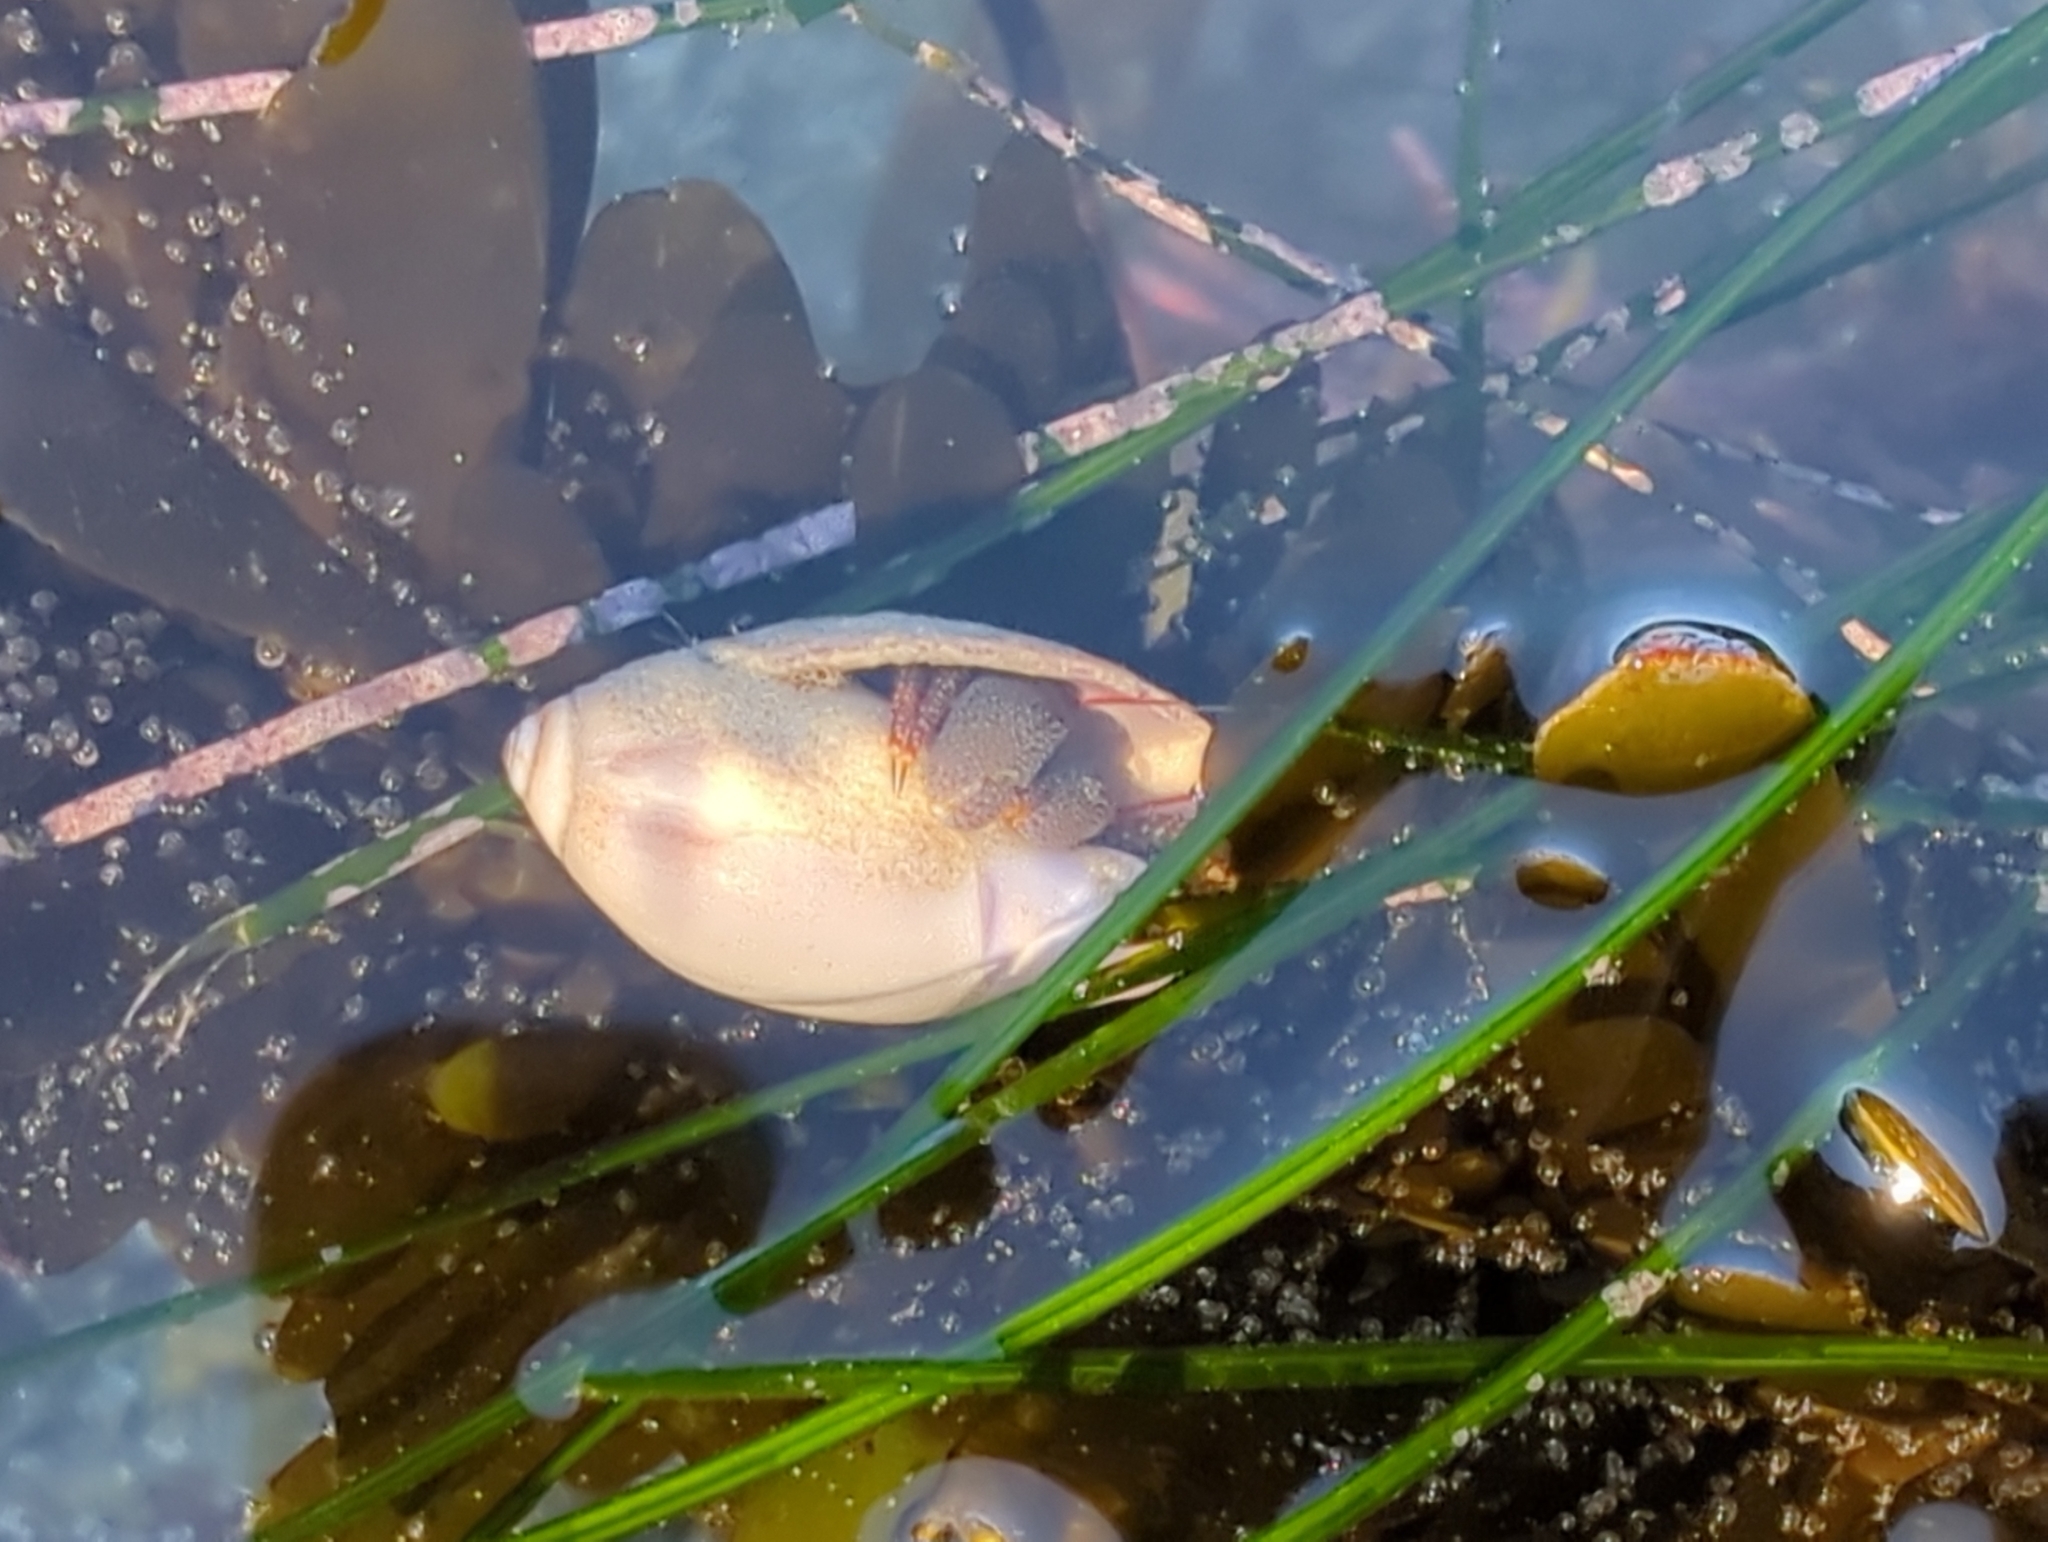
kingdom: Animalia
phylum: Arthropoda
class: Malacostraca
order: Decapoda
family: Paguridae
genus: Pagurus
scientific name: Pagurus granosimanus
